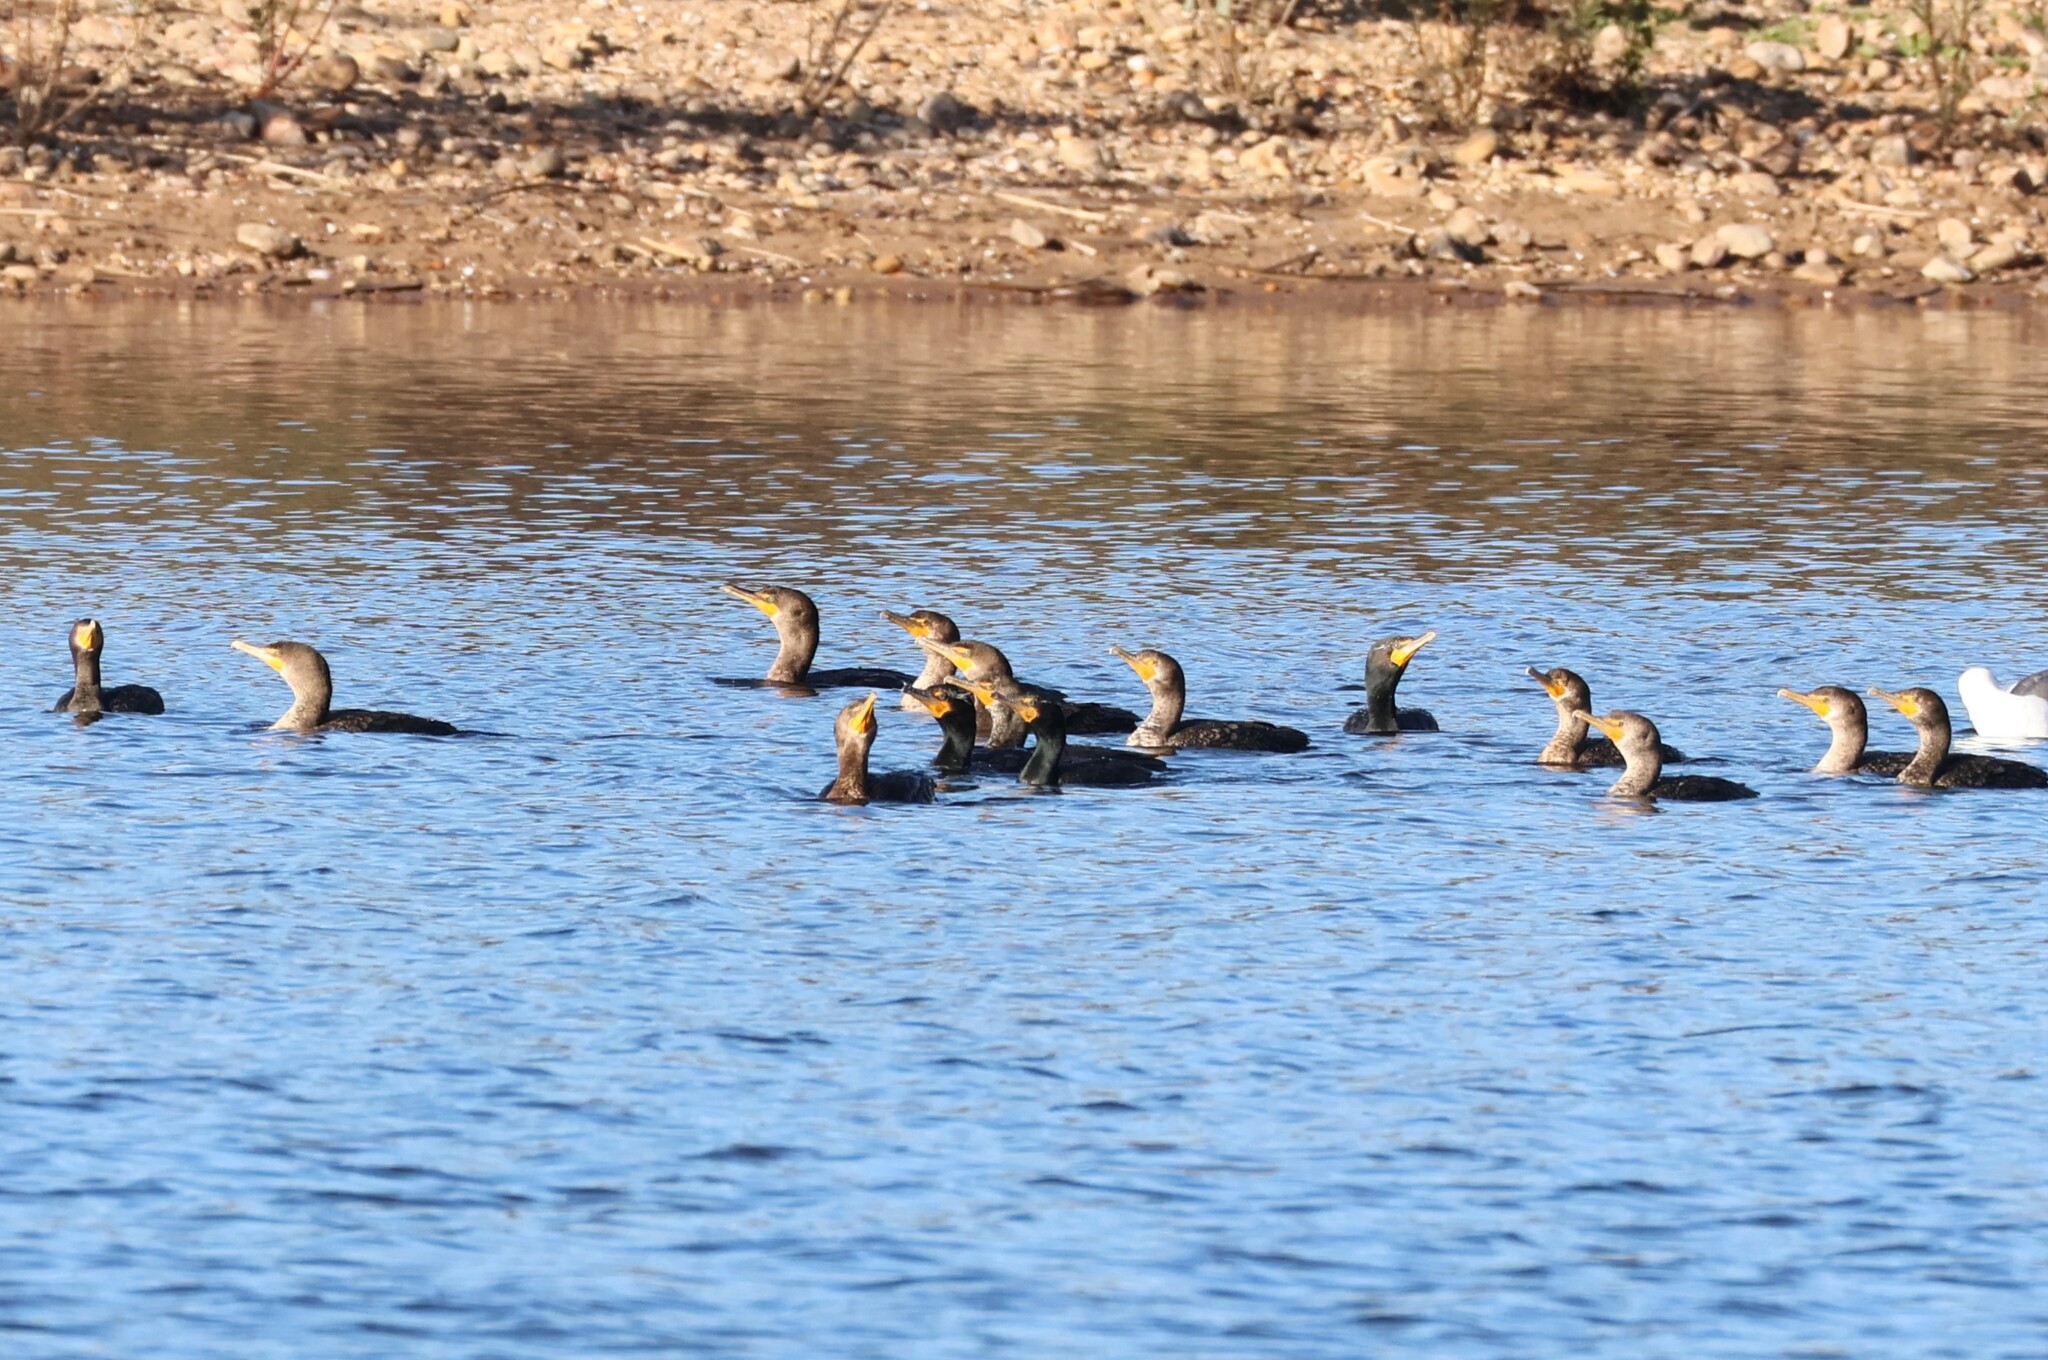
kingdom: Animalia
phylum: Chordata
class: Aves
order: Suliformes
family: Phalacrocoracidae
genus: Phalacrocorax
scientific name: Phalacrocorax auritus
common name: Double-crested cormorant
